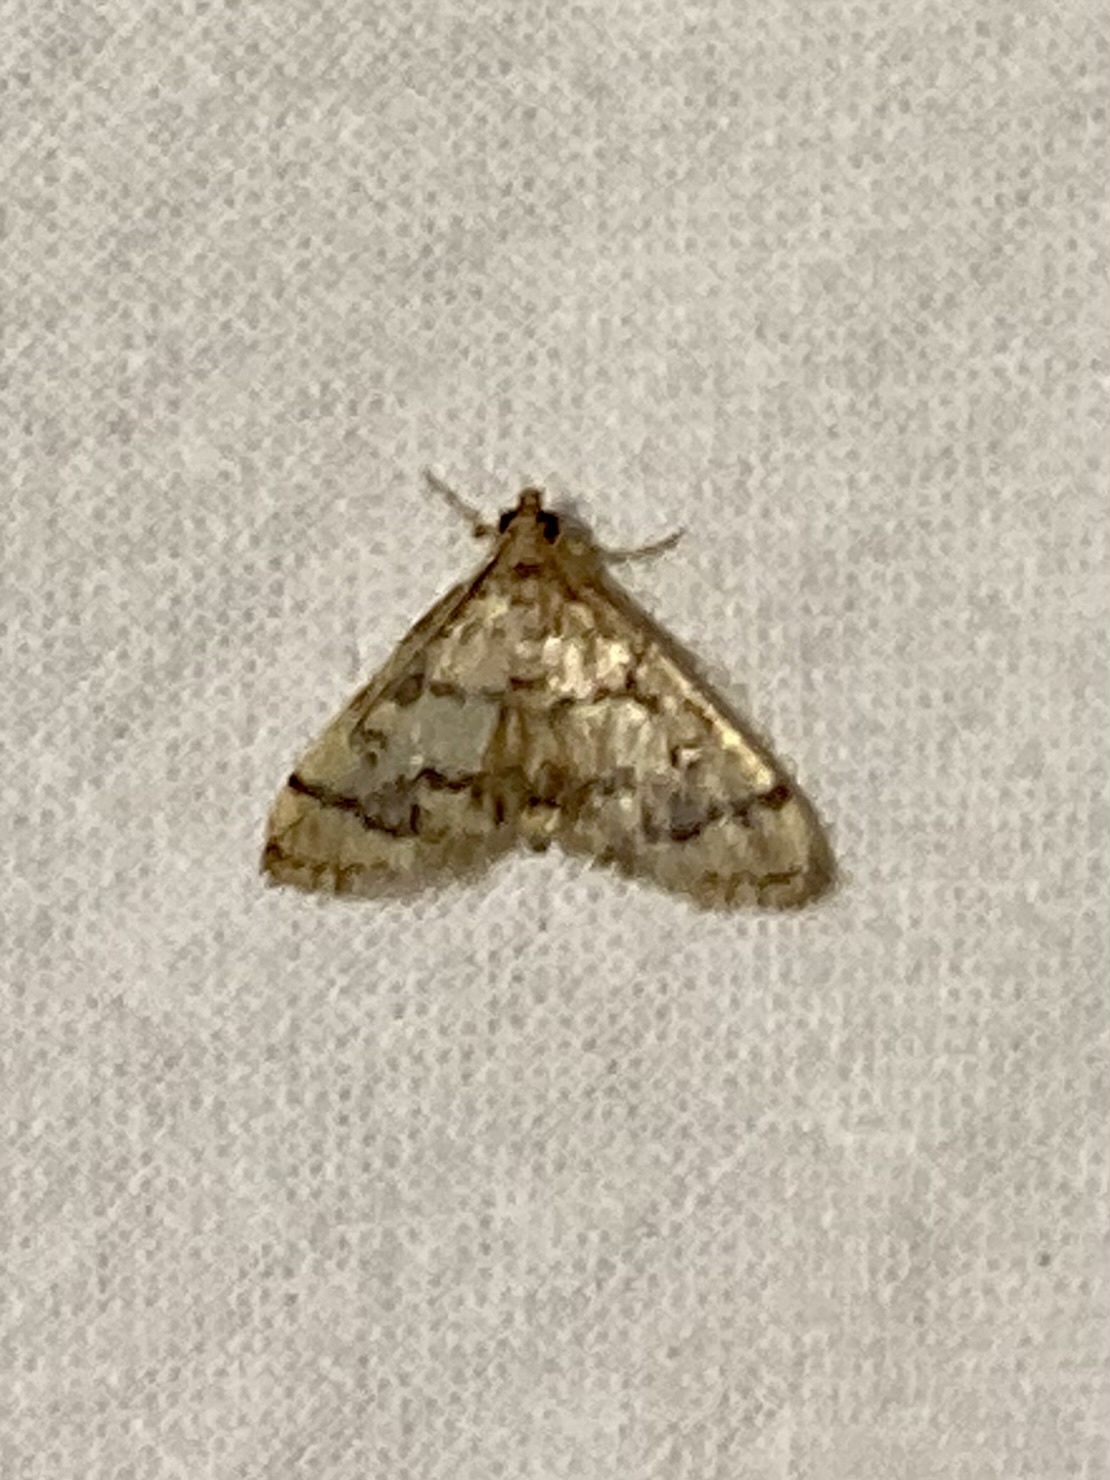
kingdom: Animalia
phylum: Arthropoda
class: Insecta
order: Lepidoptera
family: Crambidae
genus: Metasia
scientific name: Metasia ophialis
